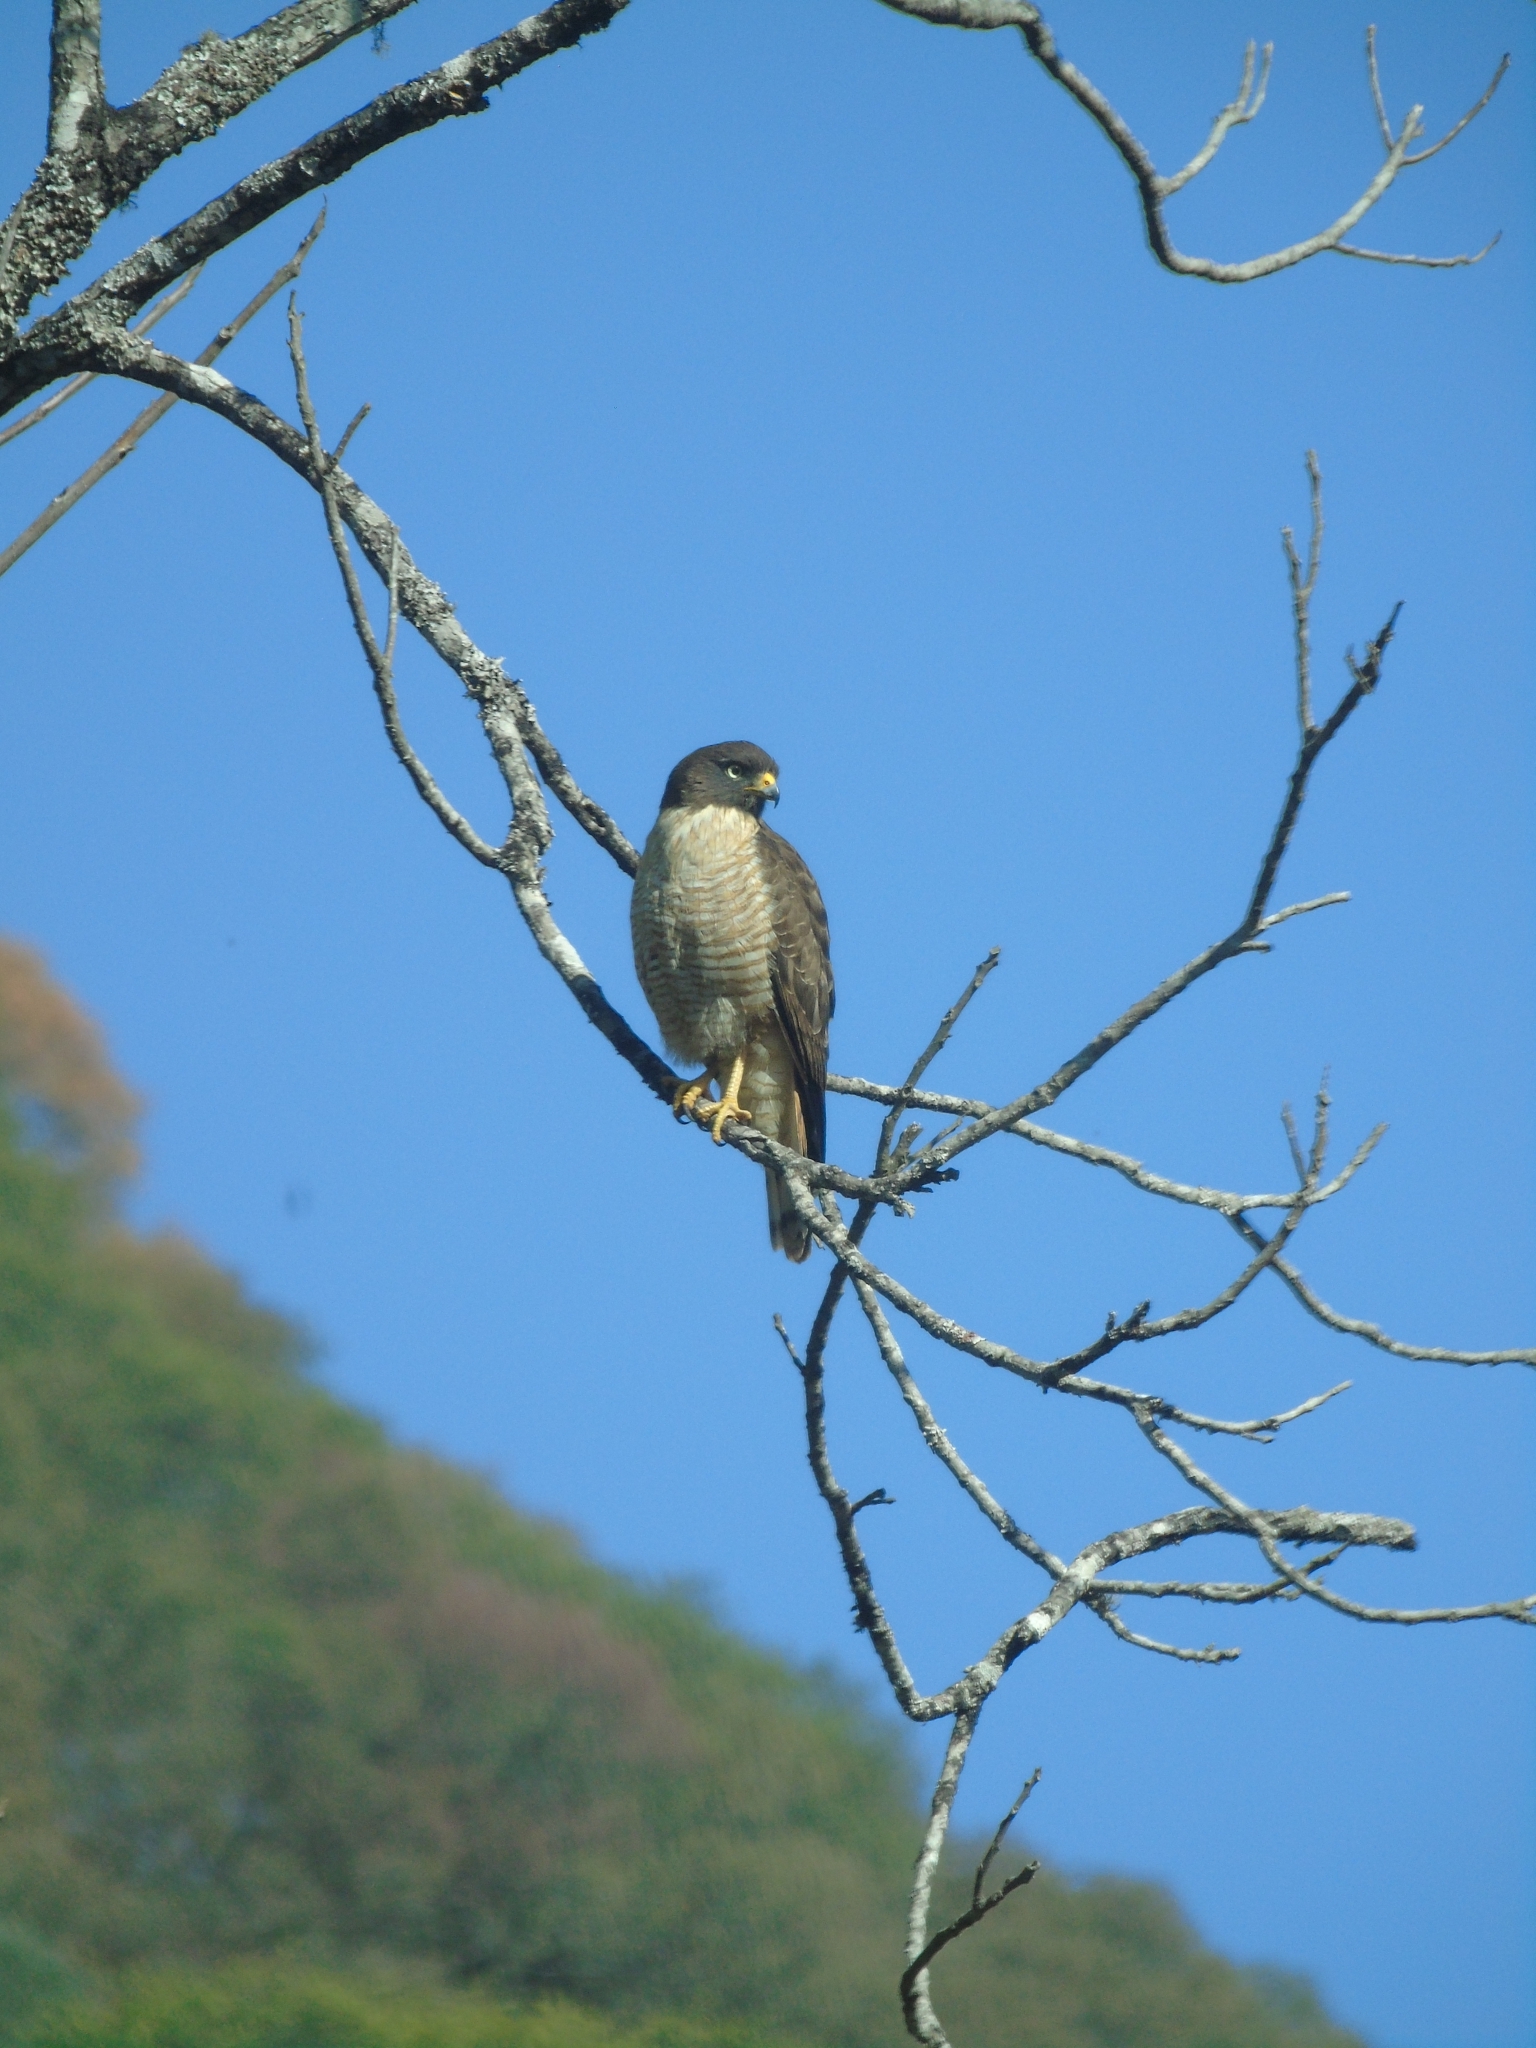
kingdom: Animalia
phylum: Chordata
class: Aves
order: Accipitriformes
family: Accipitridae
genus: Rupornis
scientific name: Rupornis magnirostris
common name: Roadside hawk
